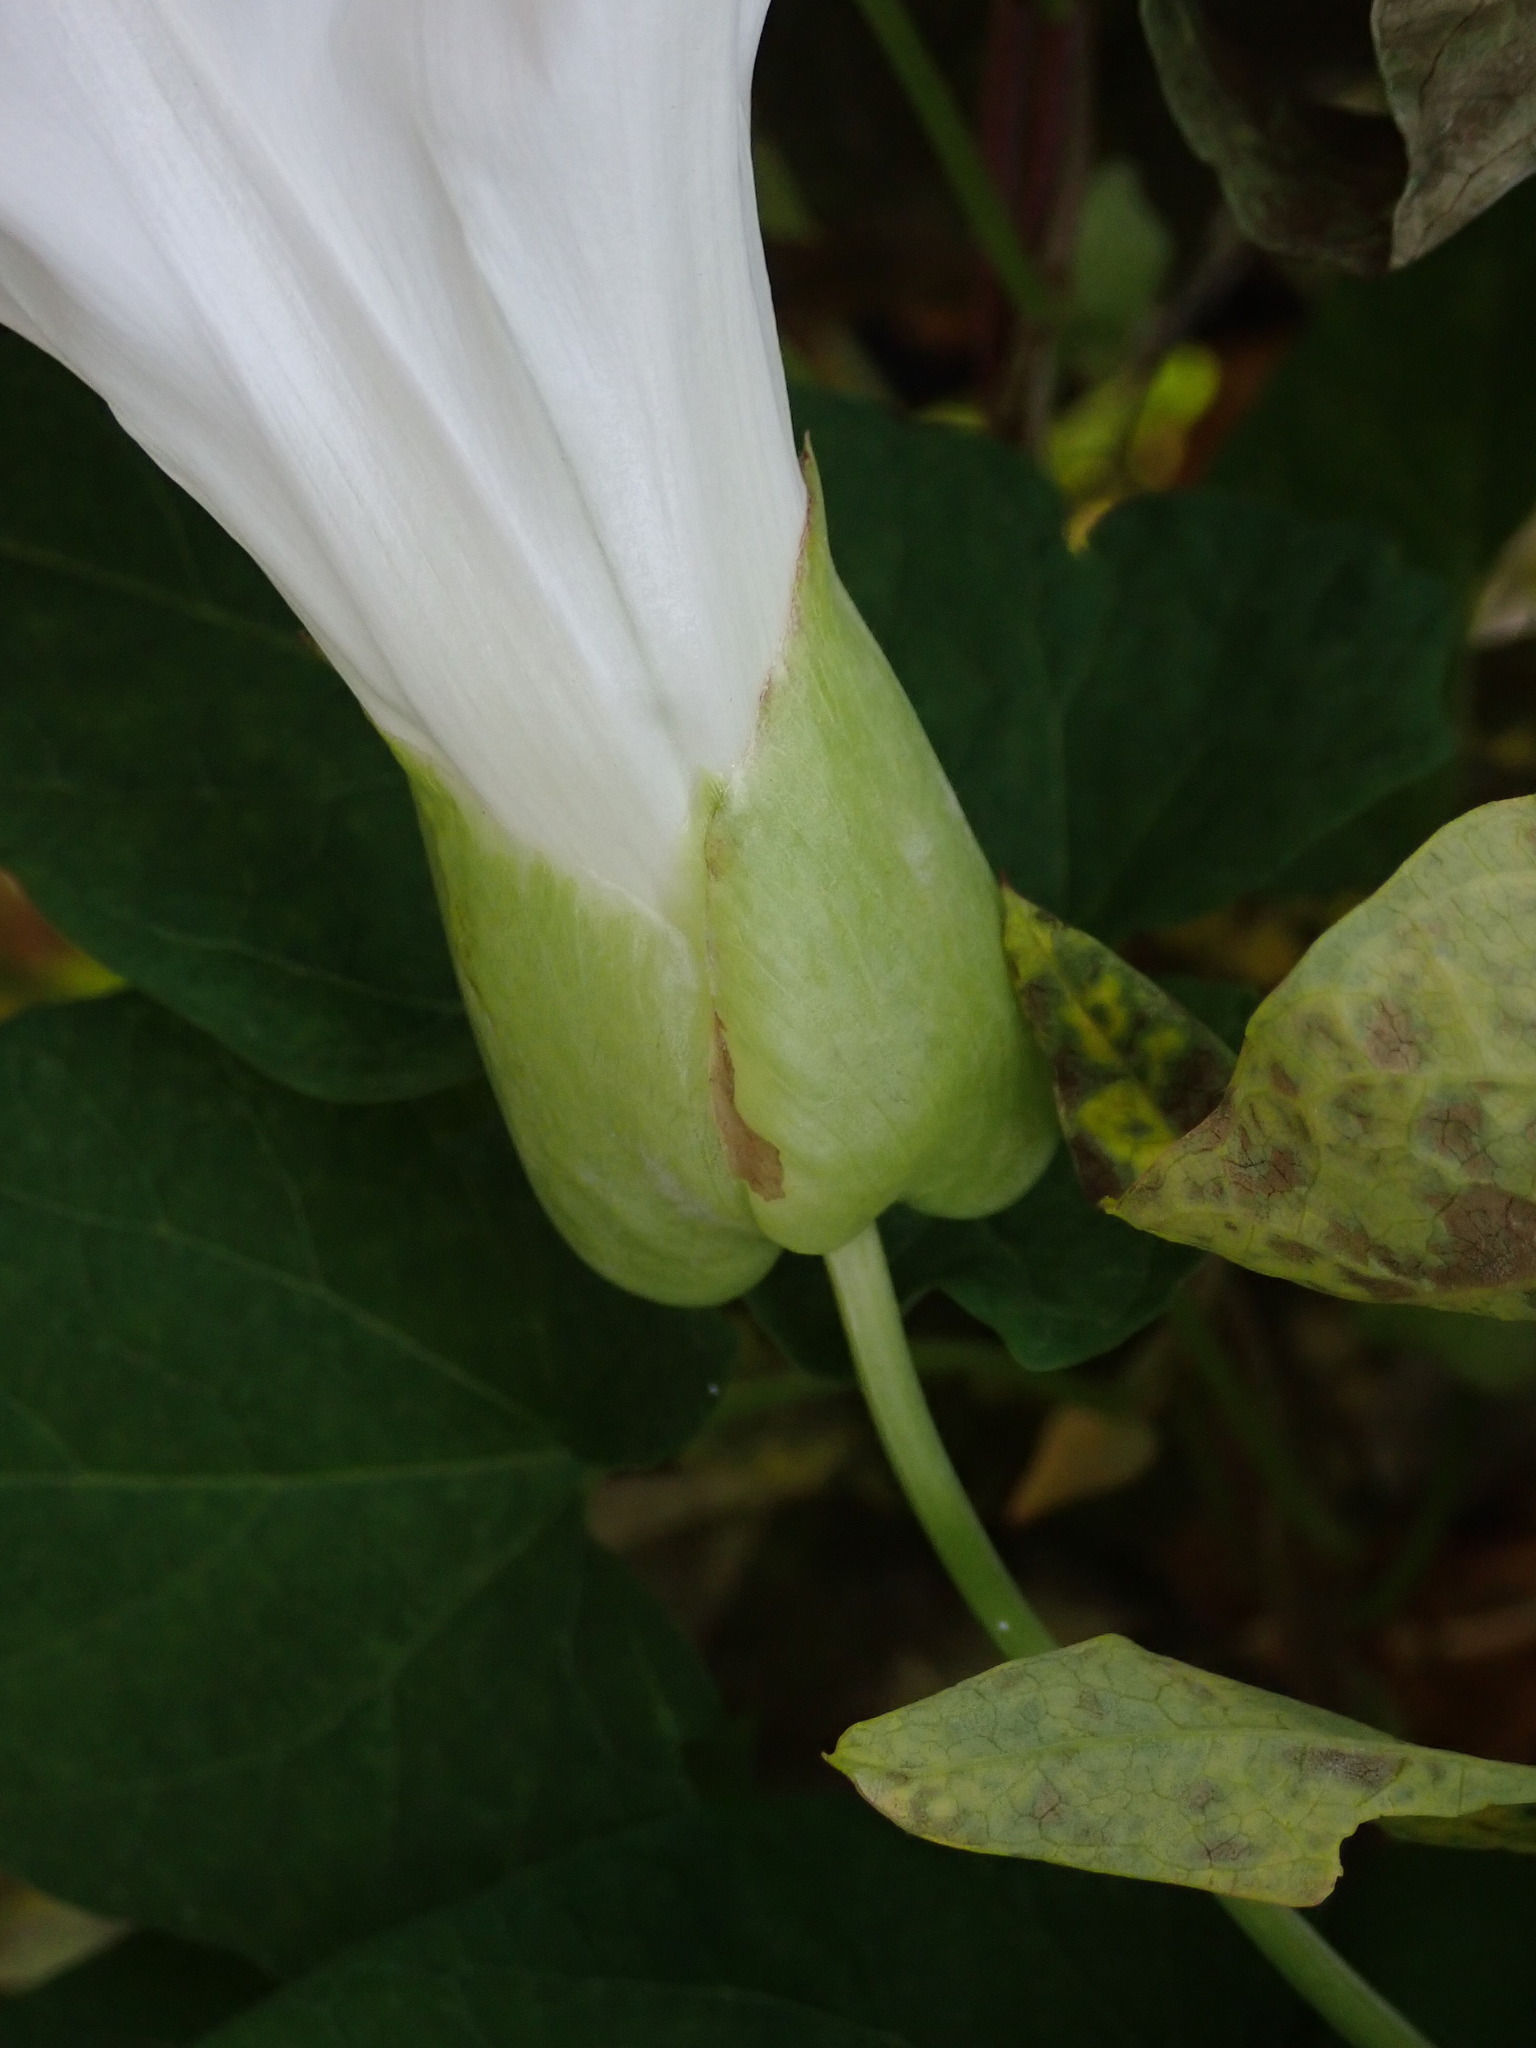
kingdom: Plantae
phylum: Tracheophyta
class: Magnoliopsida
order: Solanales
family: Convolvulaceae
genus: Calystegia
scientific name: Calystegia silvatica
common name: Large bindweed
